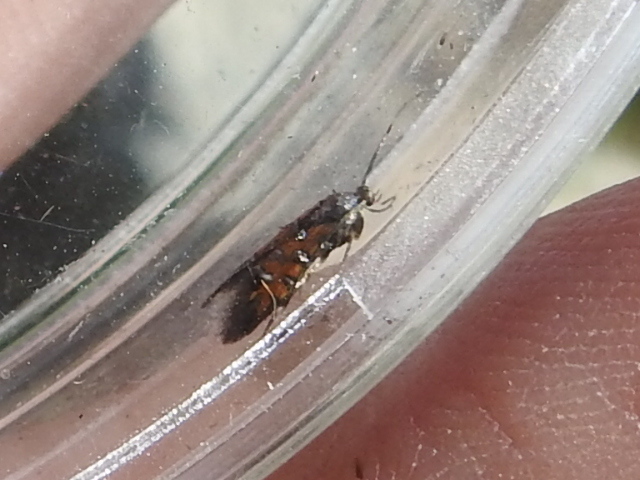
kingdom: Animalia
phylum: Arthropoda
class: Insecta
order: Lepidoptera
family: Heliodinidae
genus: Neoheliodines
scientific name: Neoheliodines
